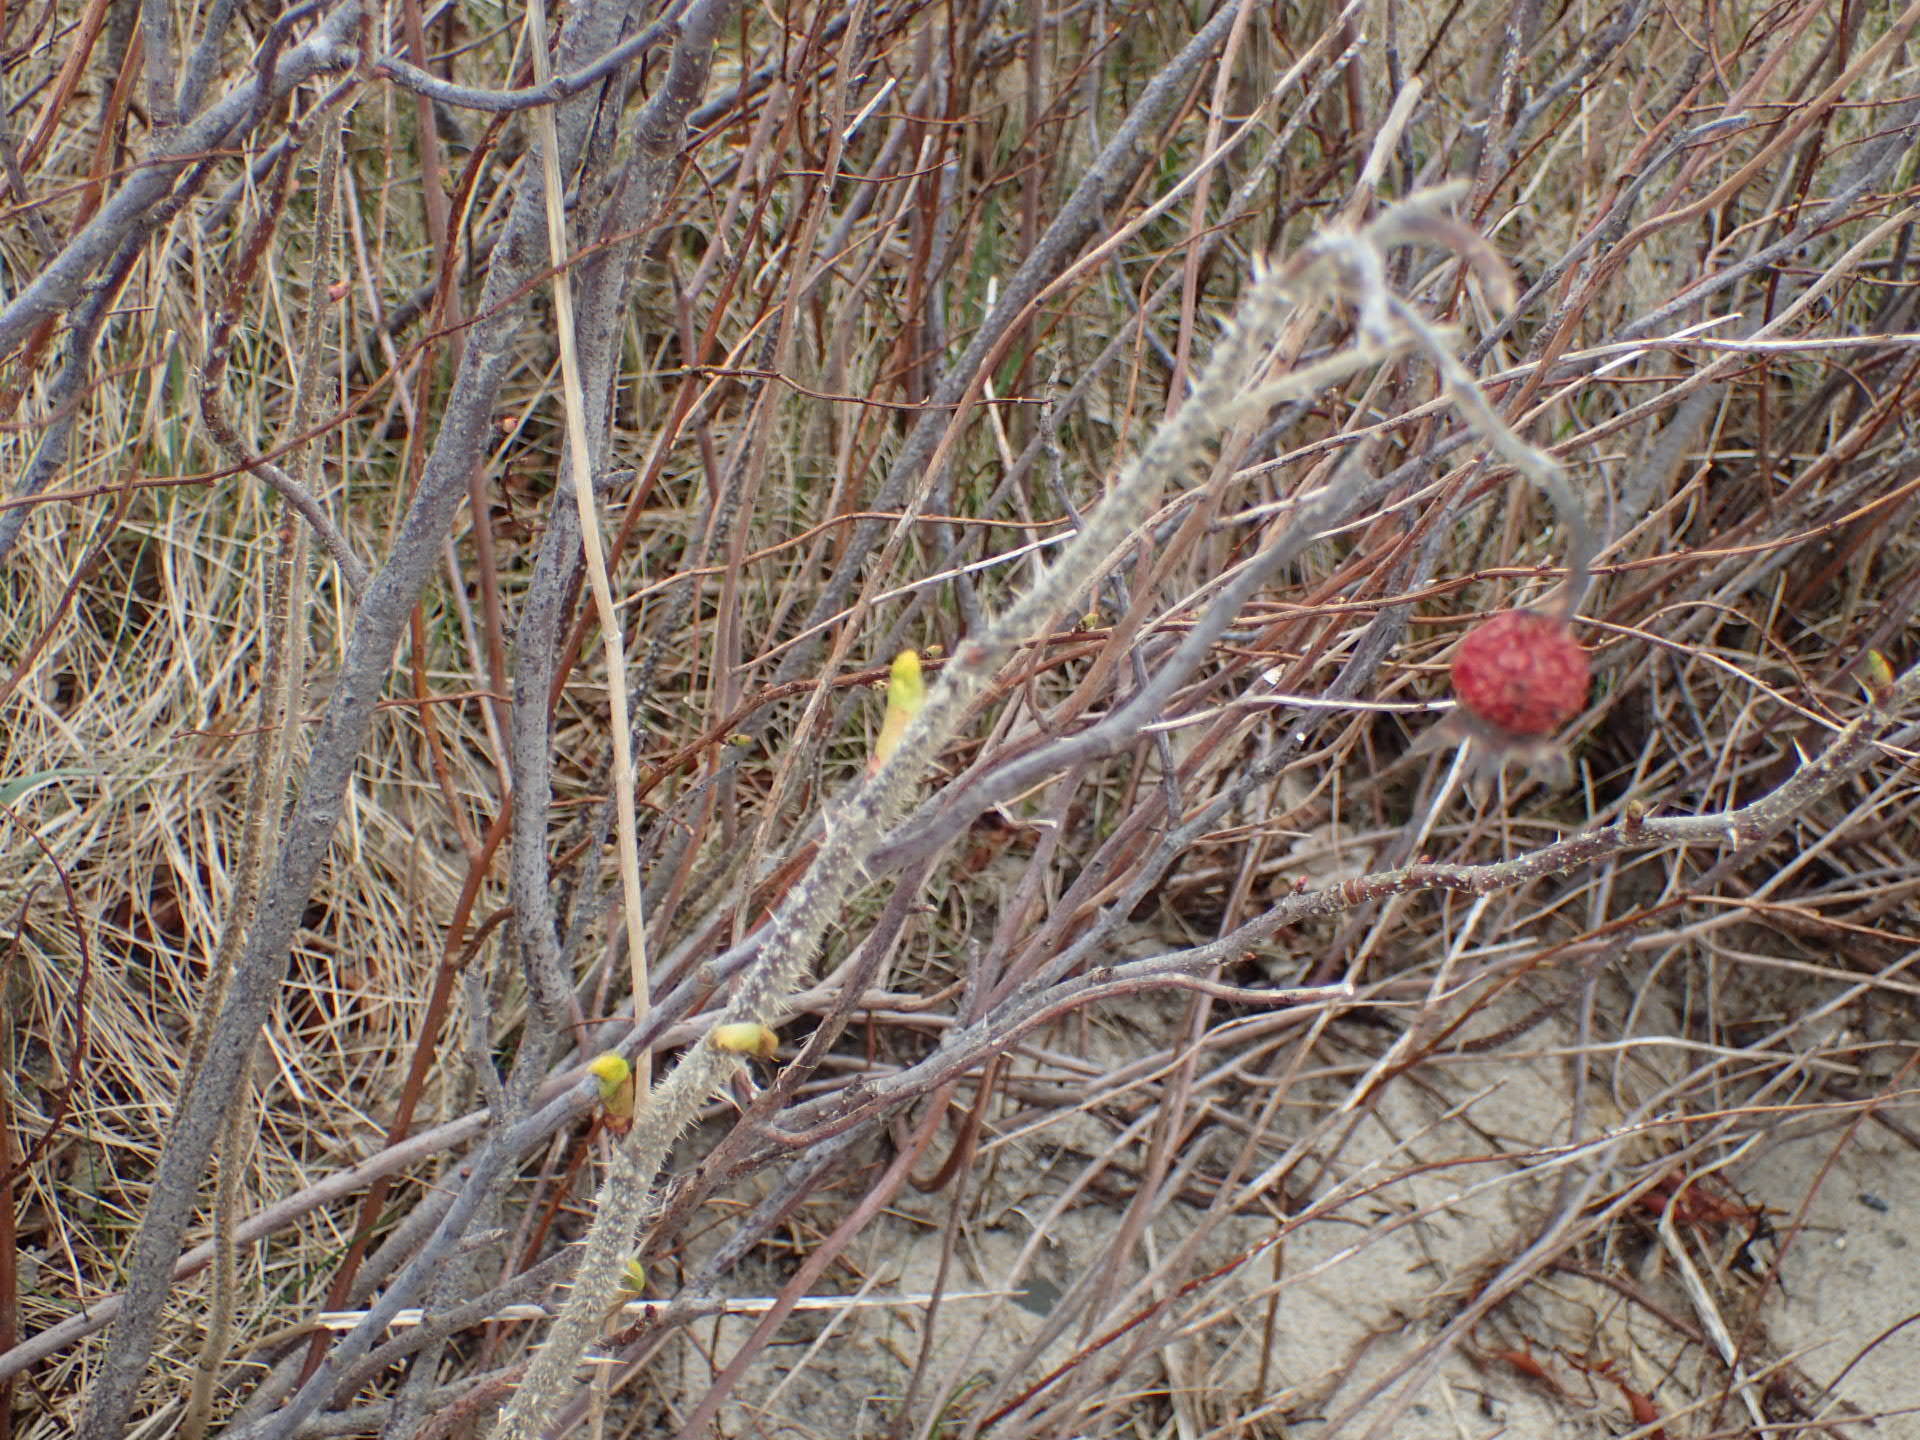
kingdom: Plantae
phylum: Tracheophyta
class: Magnoliopsida
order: Rosales
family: Rosaceae
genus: Rosa
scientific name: Rosa rugosa
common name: Japanese rose
